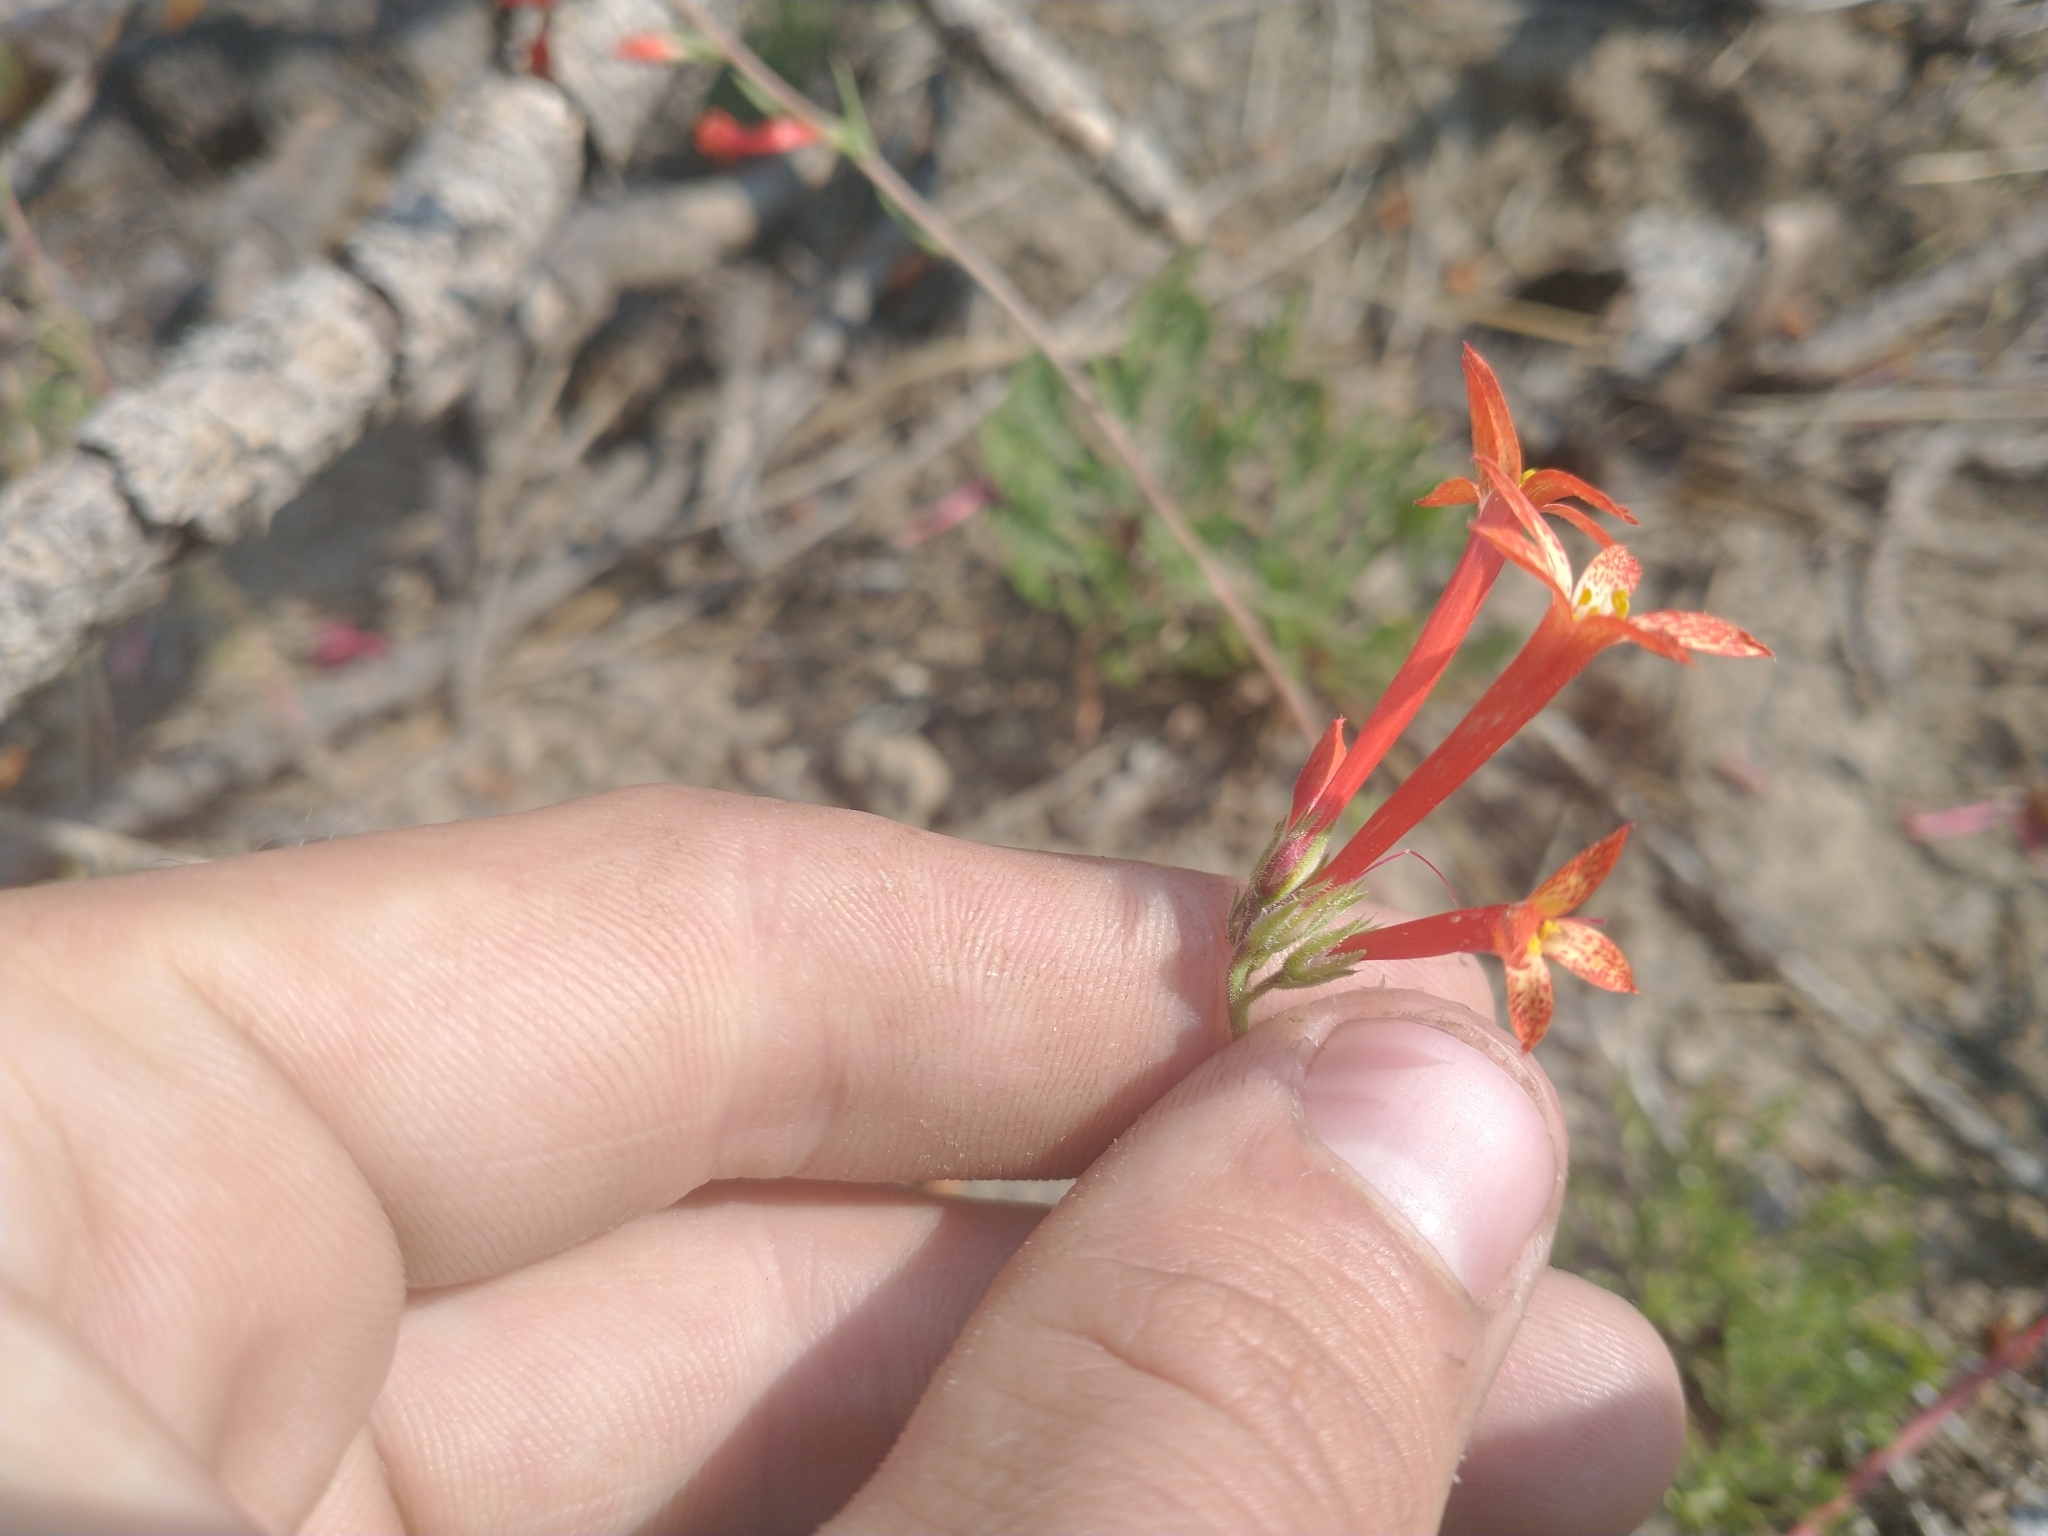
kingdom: Plantae
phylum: Tracheophyta
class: Magnoliopsida
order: Ericales
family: Polemoniaceae
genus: Ipomopsis
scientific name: Ipomopsis aggregata
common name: Scarlet gilia
